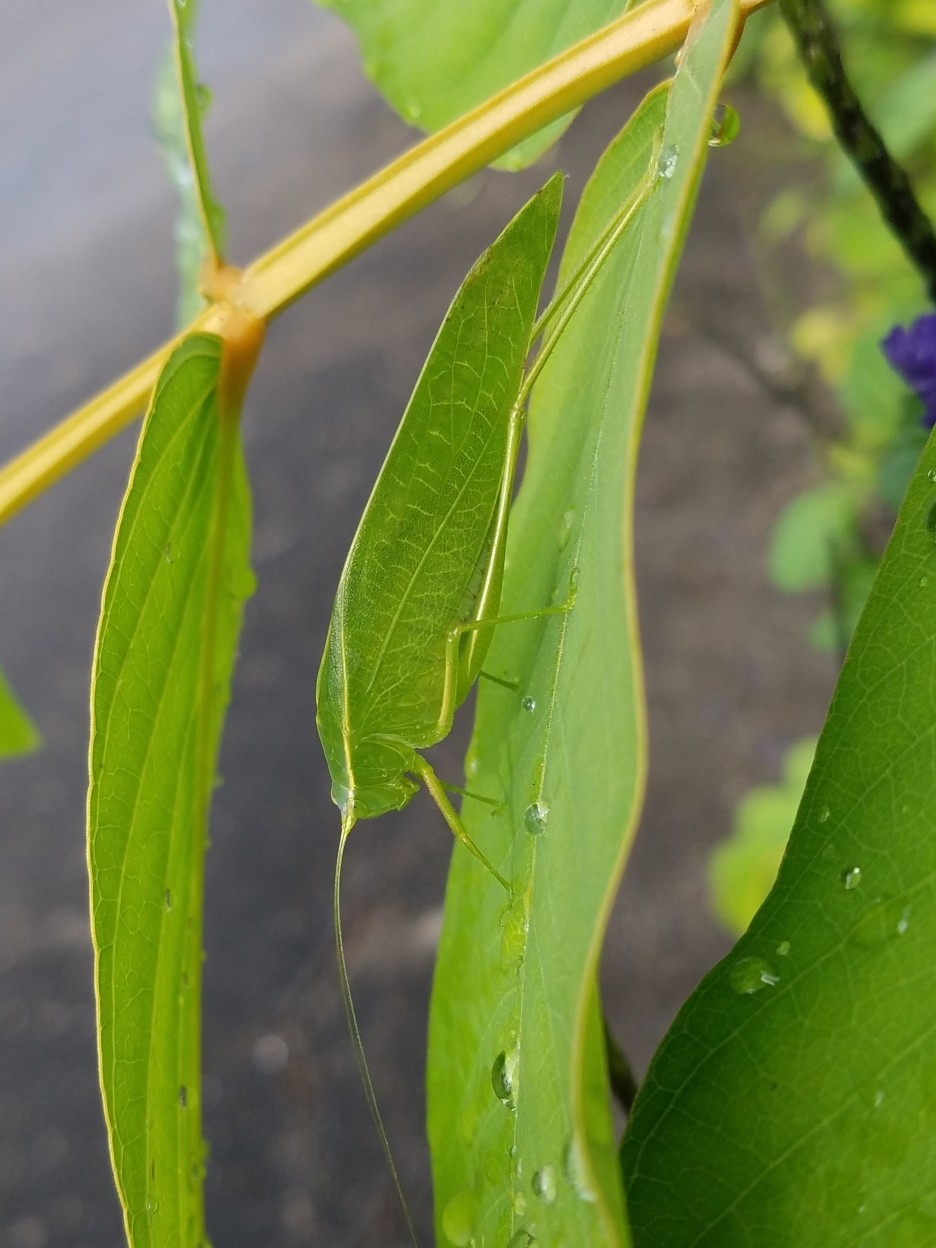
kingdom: Animalia
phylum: Arthropoda
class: Insecta
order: Orthoptera
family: Tettigoniidae
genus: Turpilia
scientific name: Turpilia rostrata
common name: Narrow-beaked katydid
